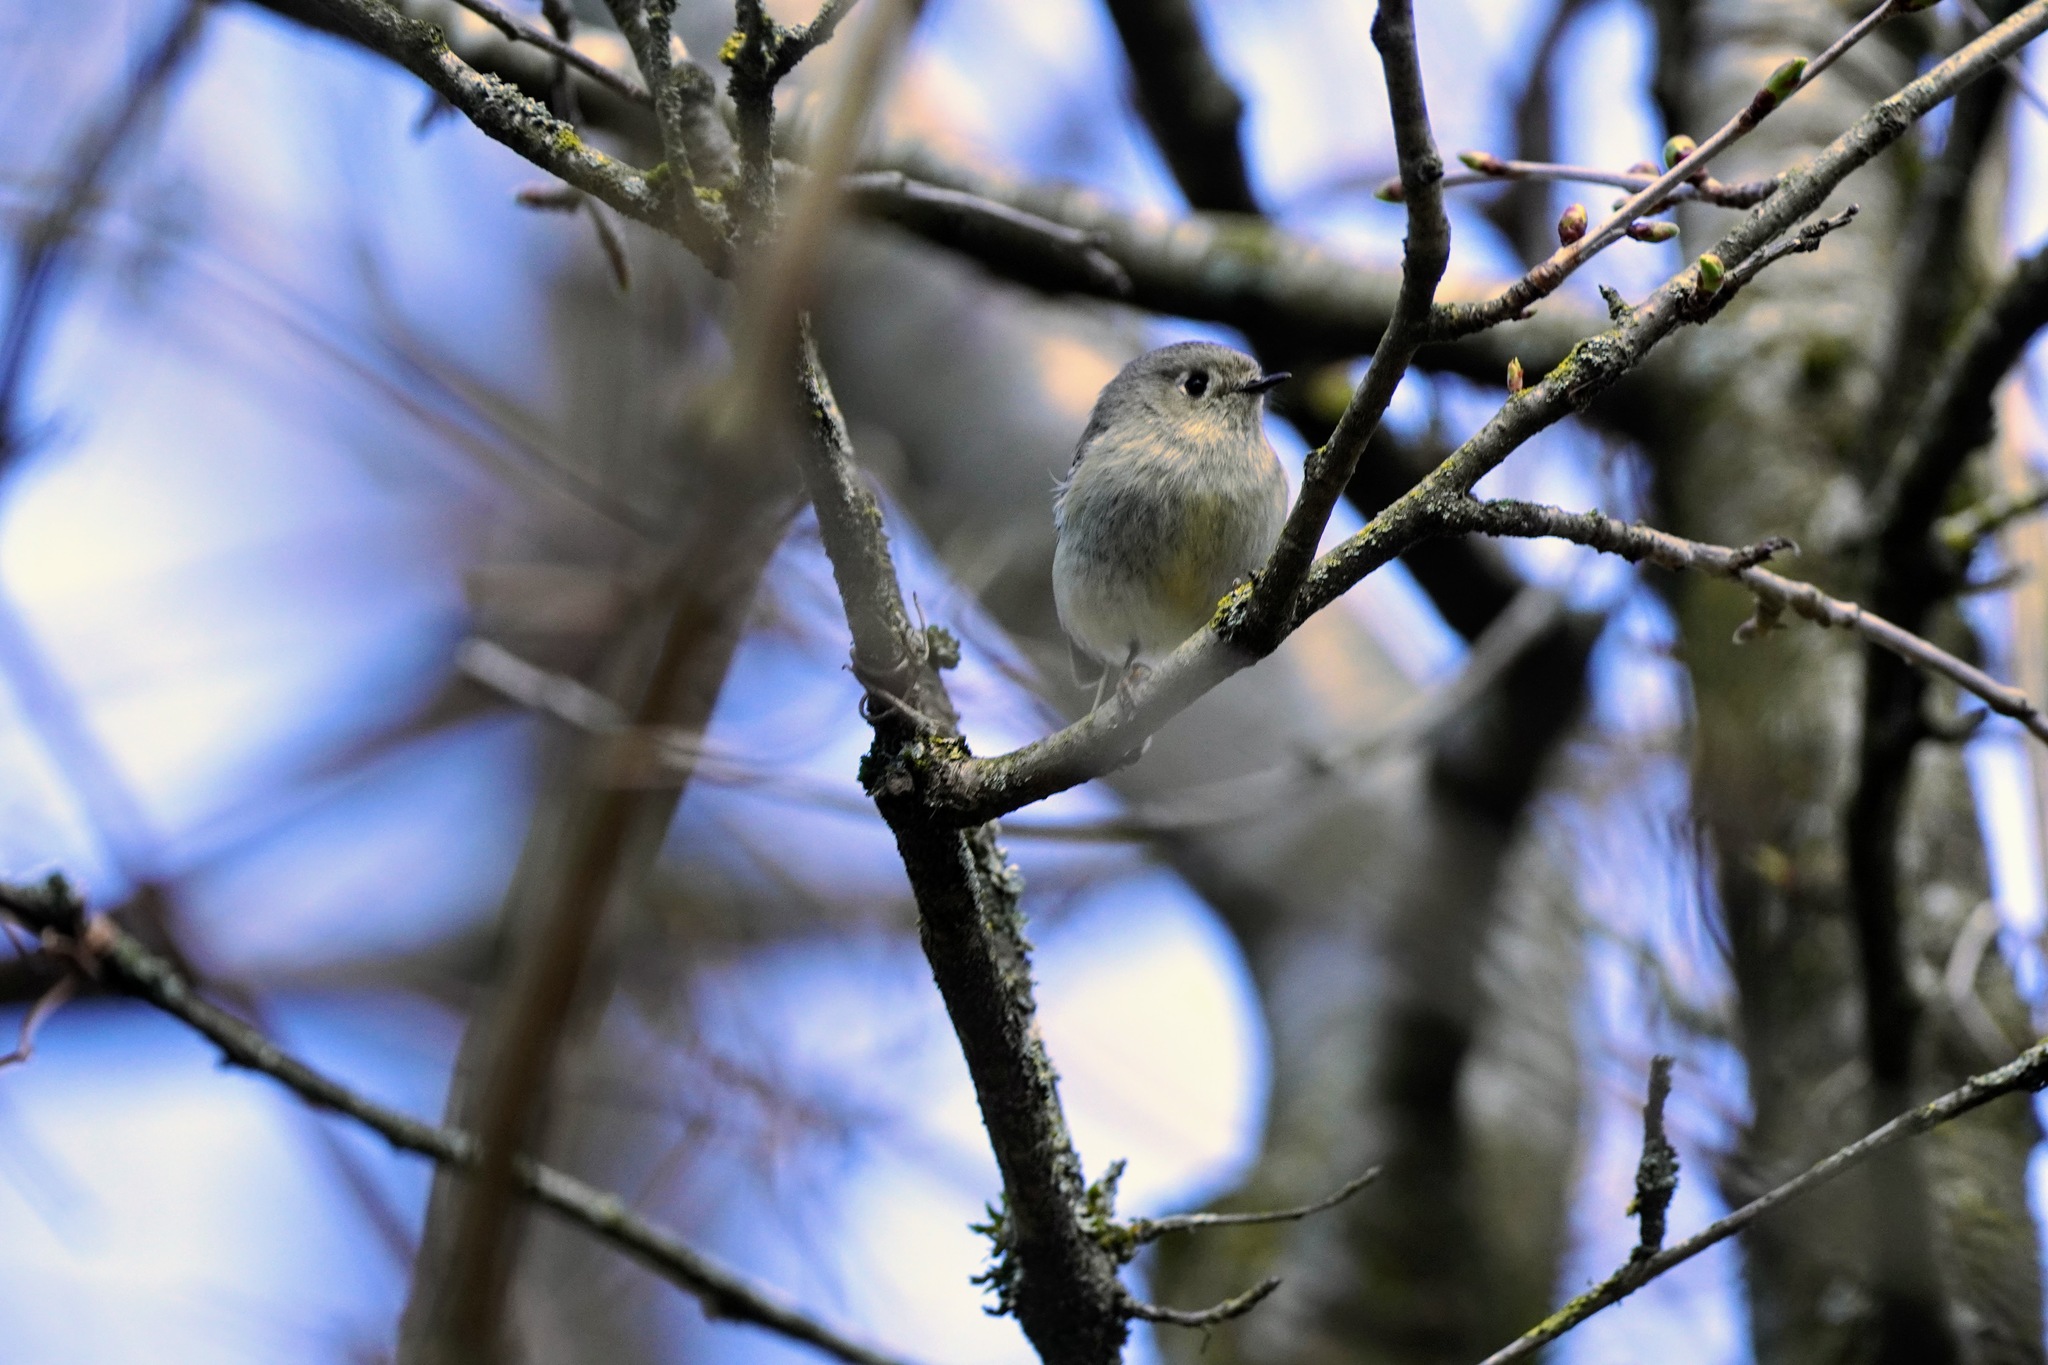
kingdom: Animalia
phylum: Chordata
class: Aves
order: Passeriformes
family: Regulidae
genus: Regulus
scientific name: Regulus calendula
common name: Ruby-crowned kinglet
